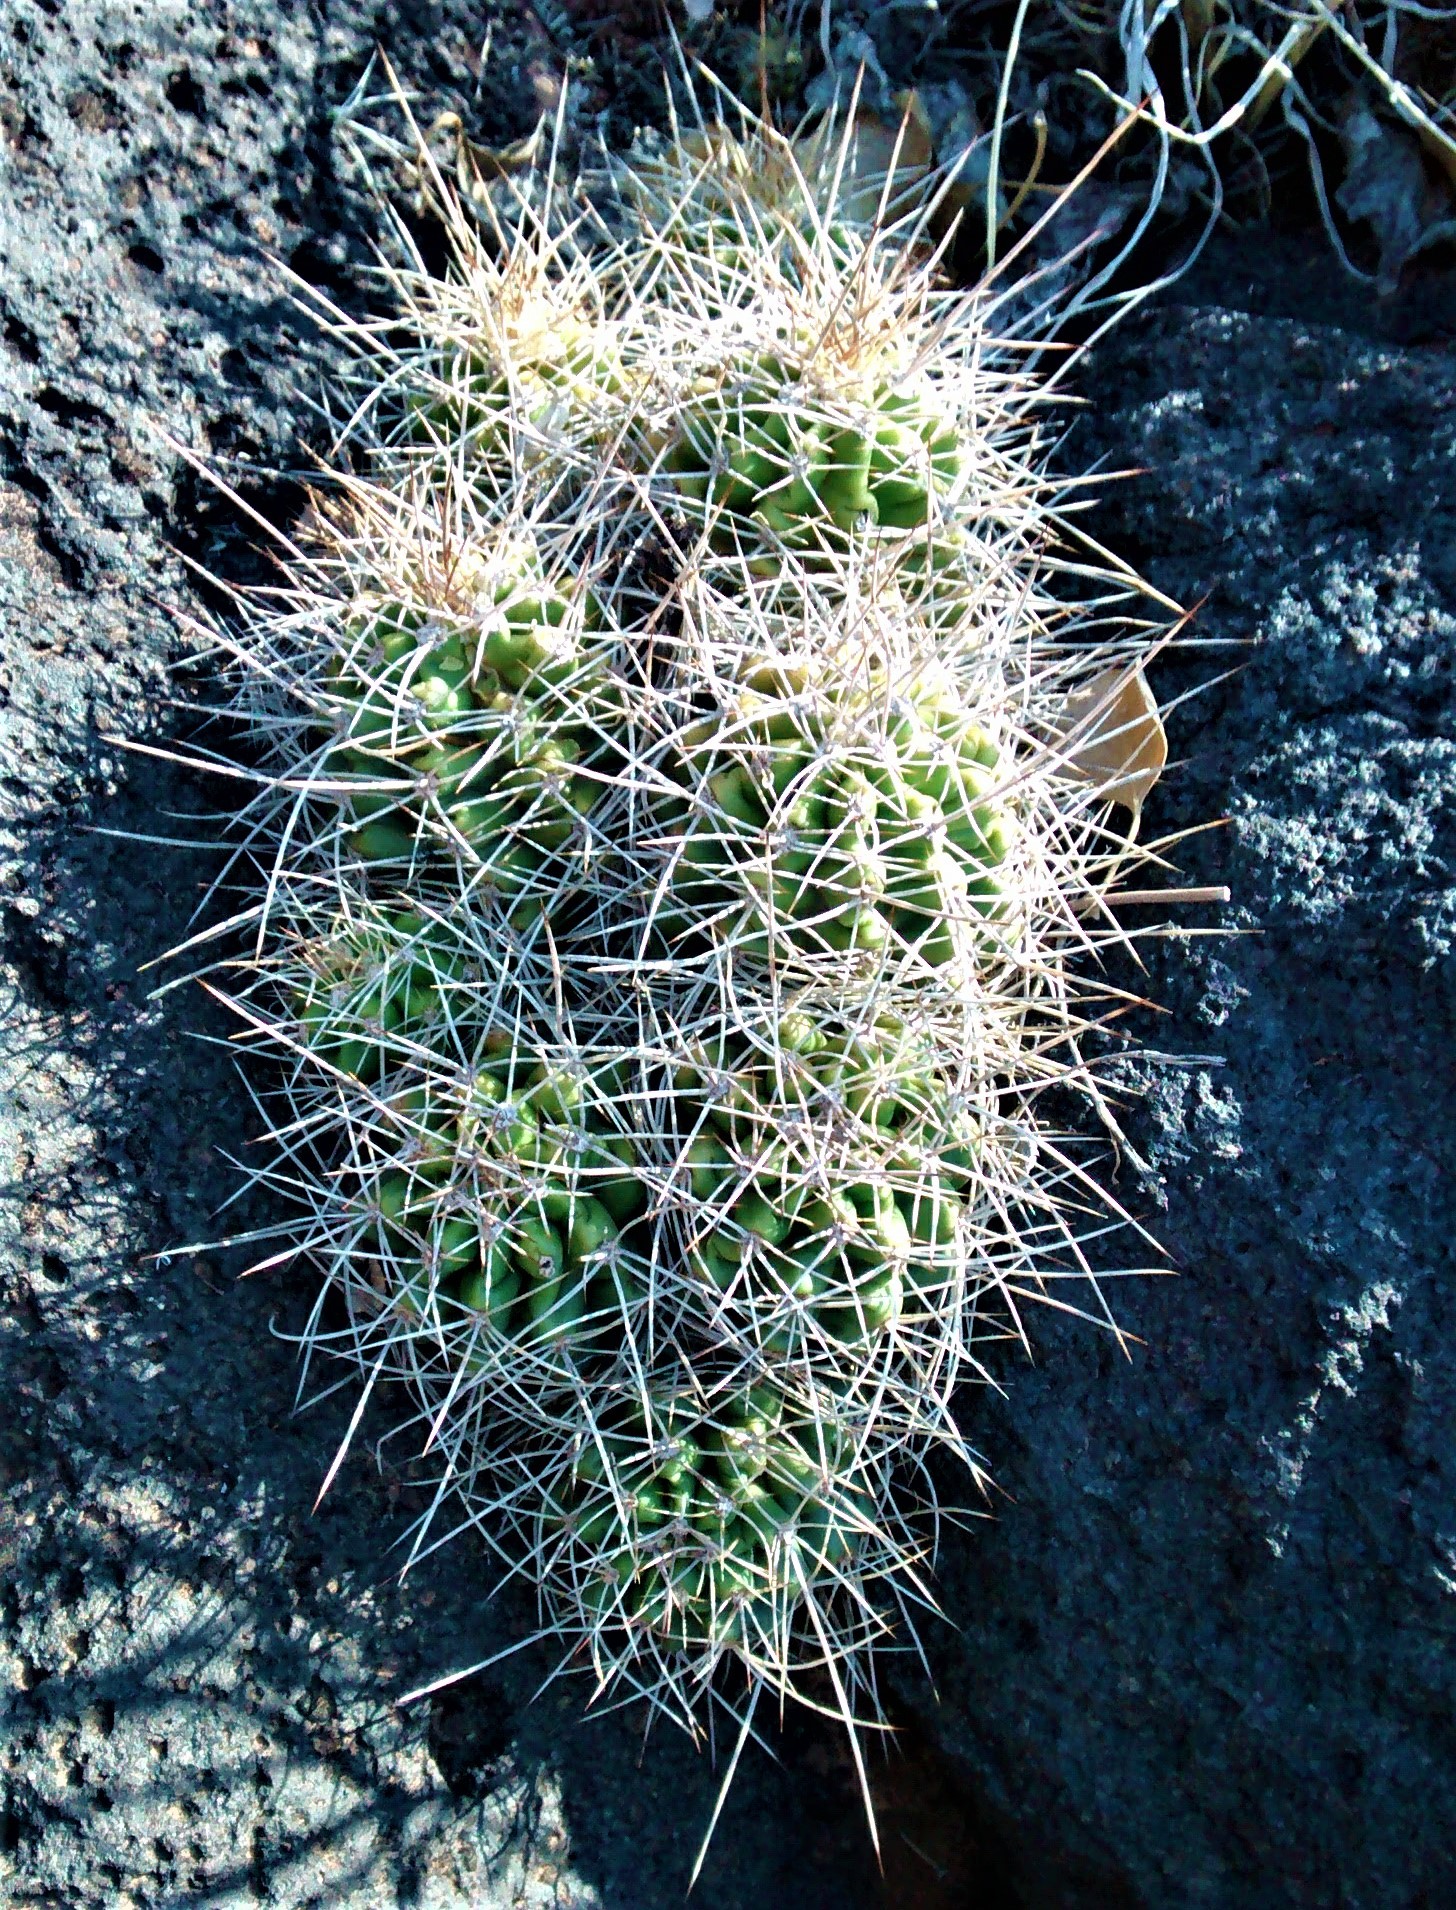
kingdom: Plantae
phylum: Tracheophyta
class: Magnoliopsida
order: Caryophyllales
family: Cactaceae
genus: Echinocereus
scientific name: Echinocereus triglochidiatus
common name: Claretcup hedgehog
